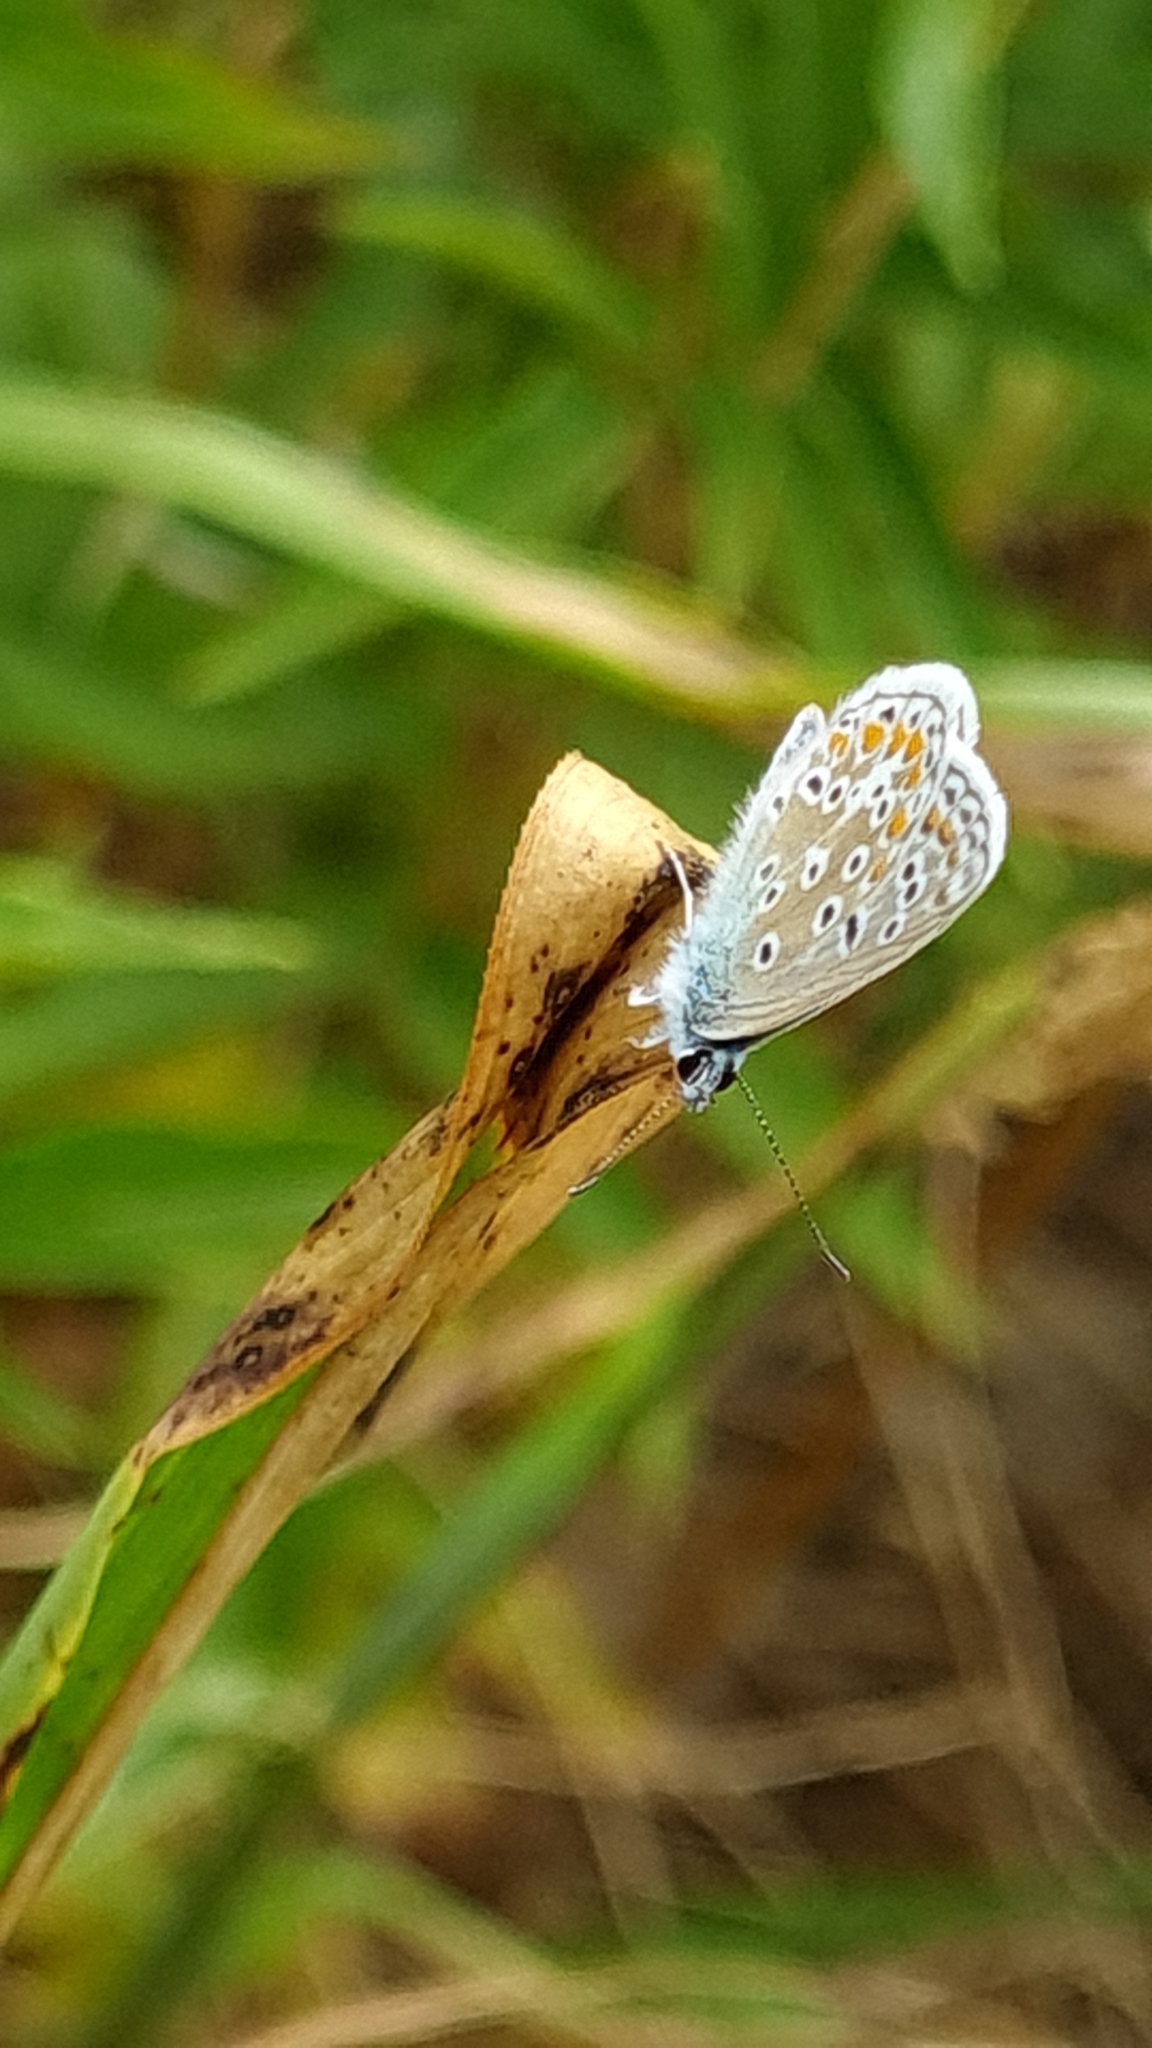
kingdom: Animalia
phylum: Arthropoda
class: Insecta
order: Lepidoptera
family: Lycaenidae
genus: Polyommatus
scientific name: Polyommatus icarus
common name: Common blue
